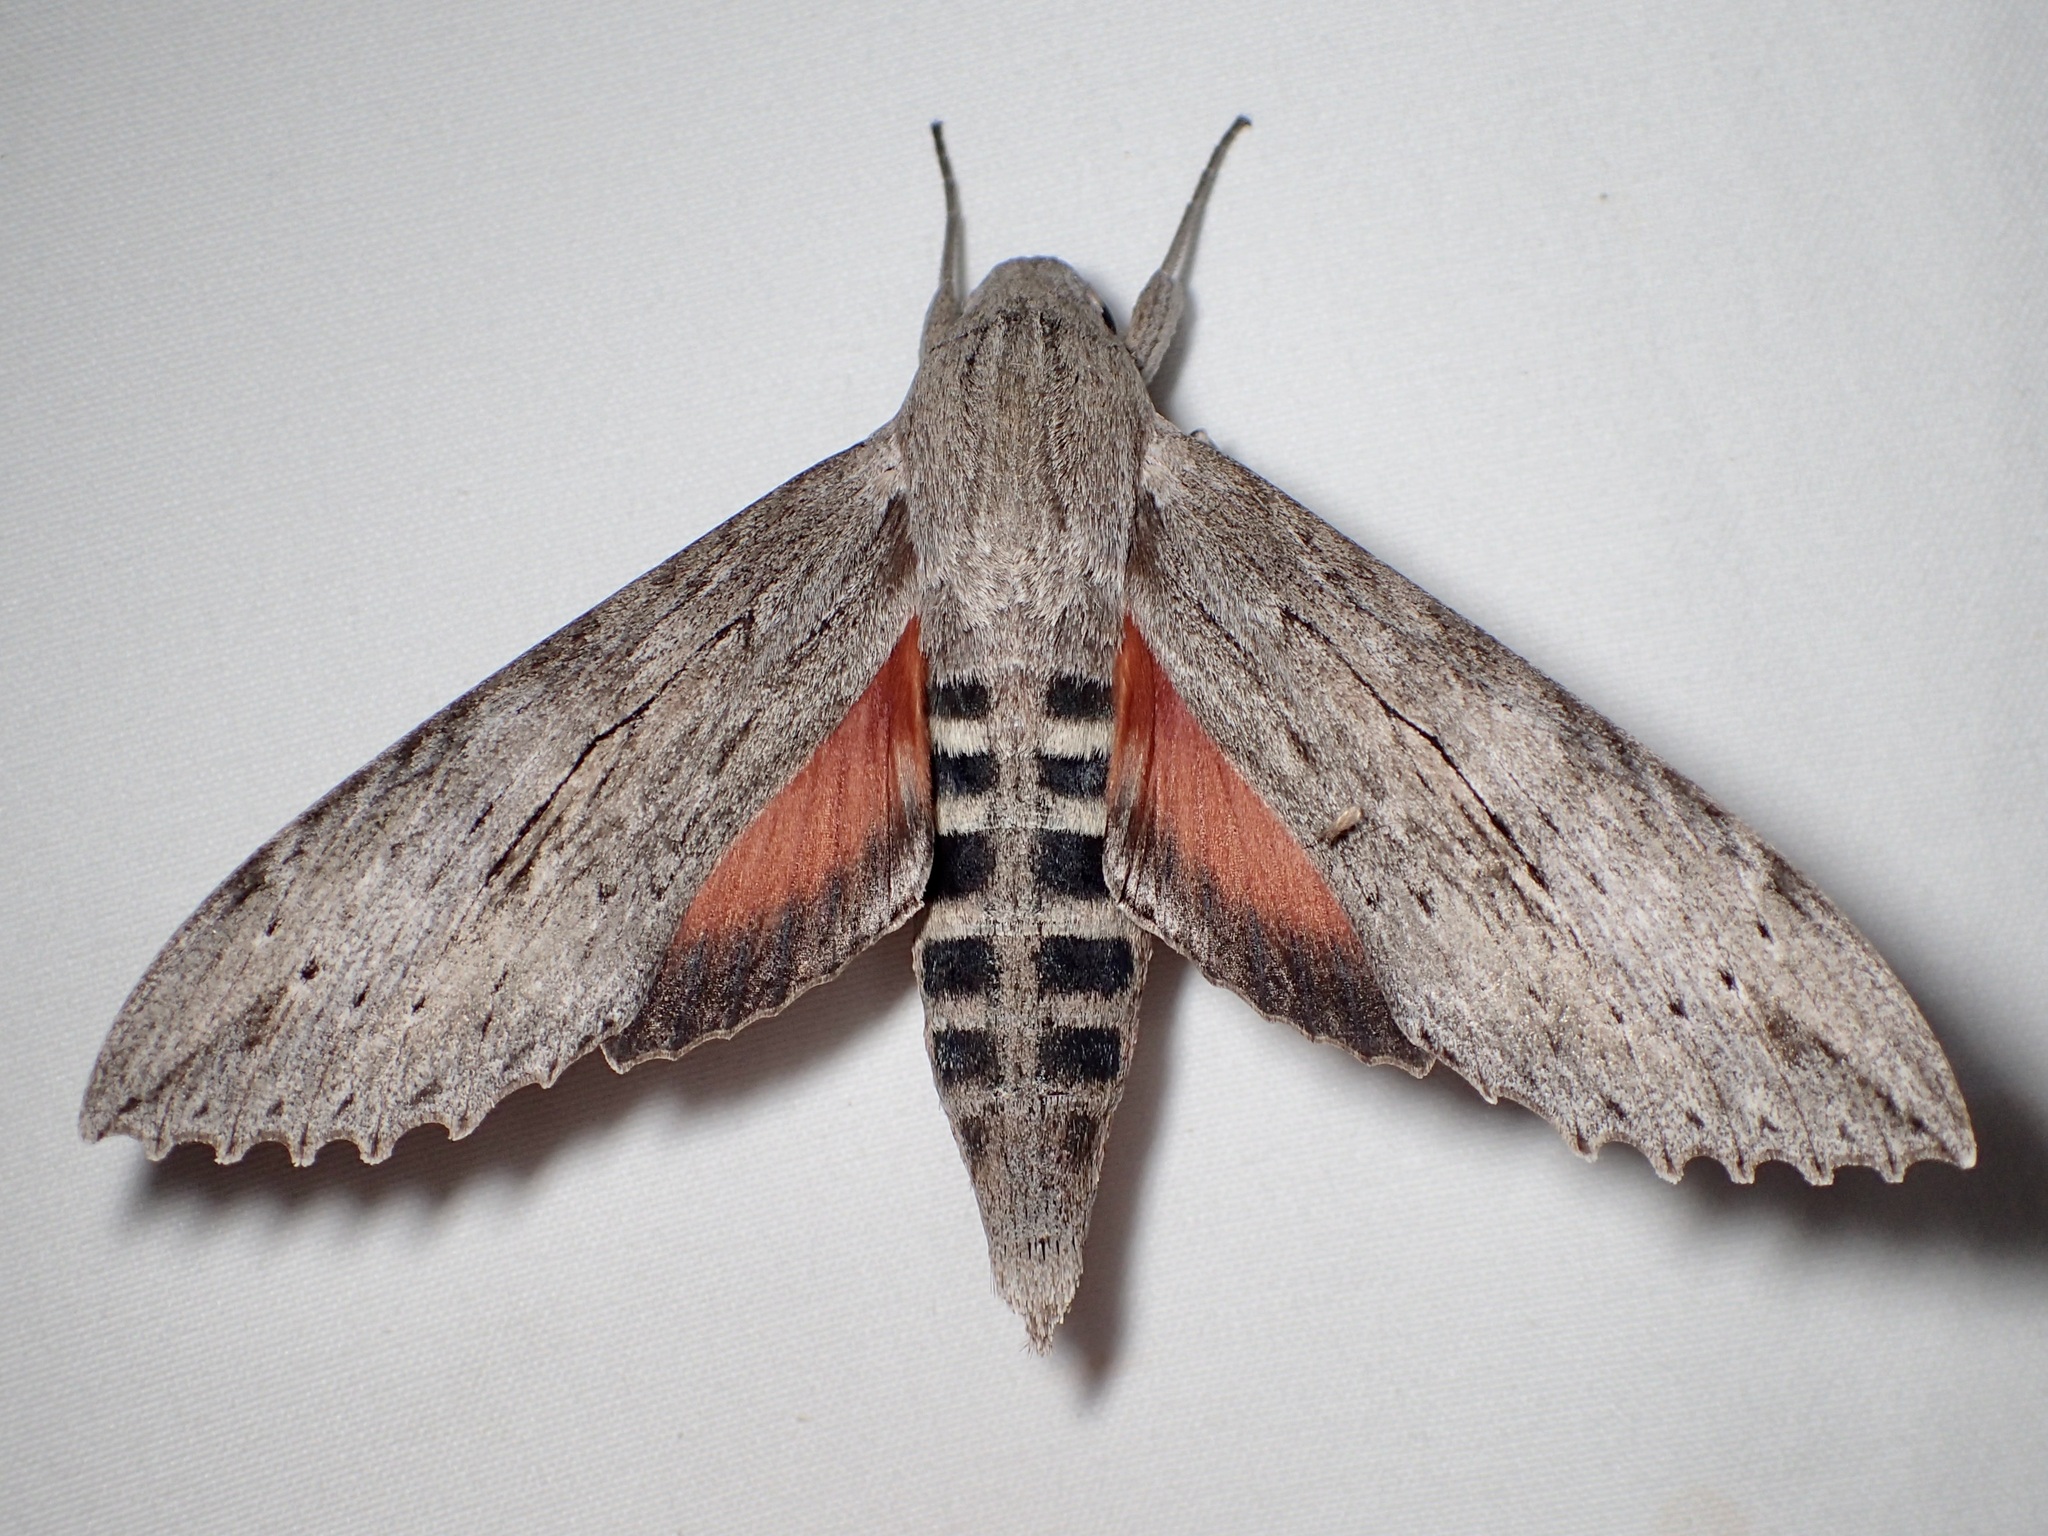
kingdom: Animalia
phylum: Arthropoda
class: Insecta
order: Lepidoptera
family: Sphingidae
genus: Erinnyis
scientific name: Erinnyis ello
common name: Ello sphinx
